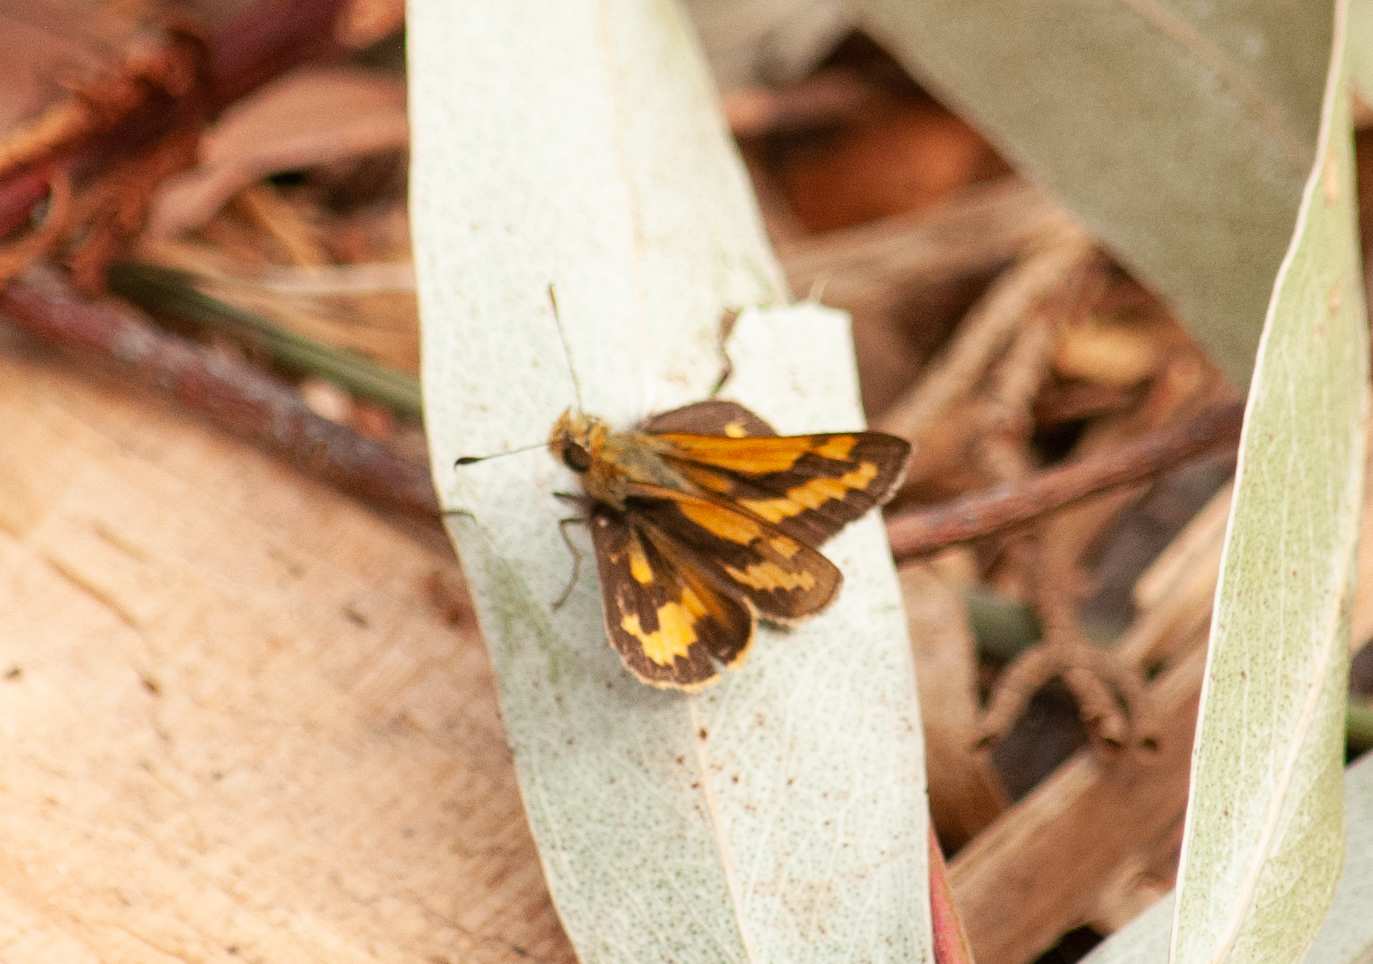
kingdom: Animalia
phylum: Arthropoda
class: Insecta
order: Lepidoptera
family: Hesperiidae
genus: Ocybadistes
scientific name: Ocybadistes walkeri
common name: Yellow-banded dart
